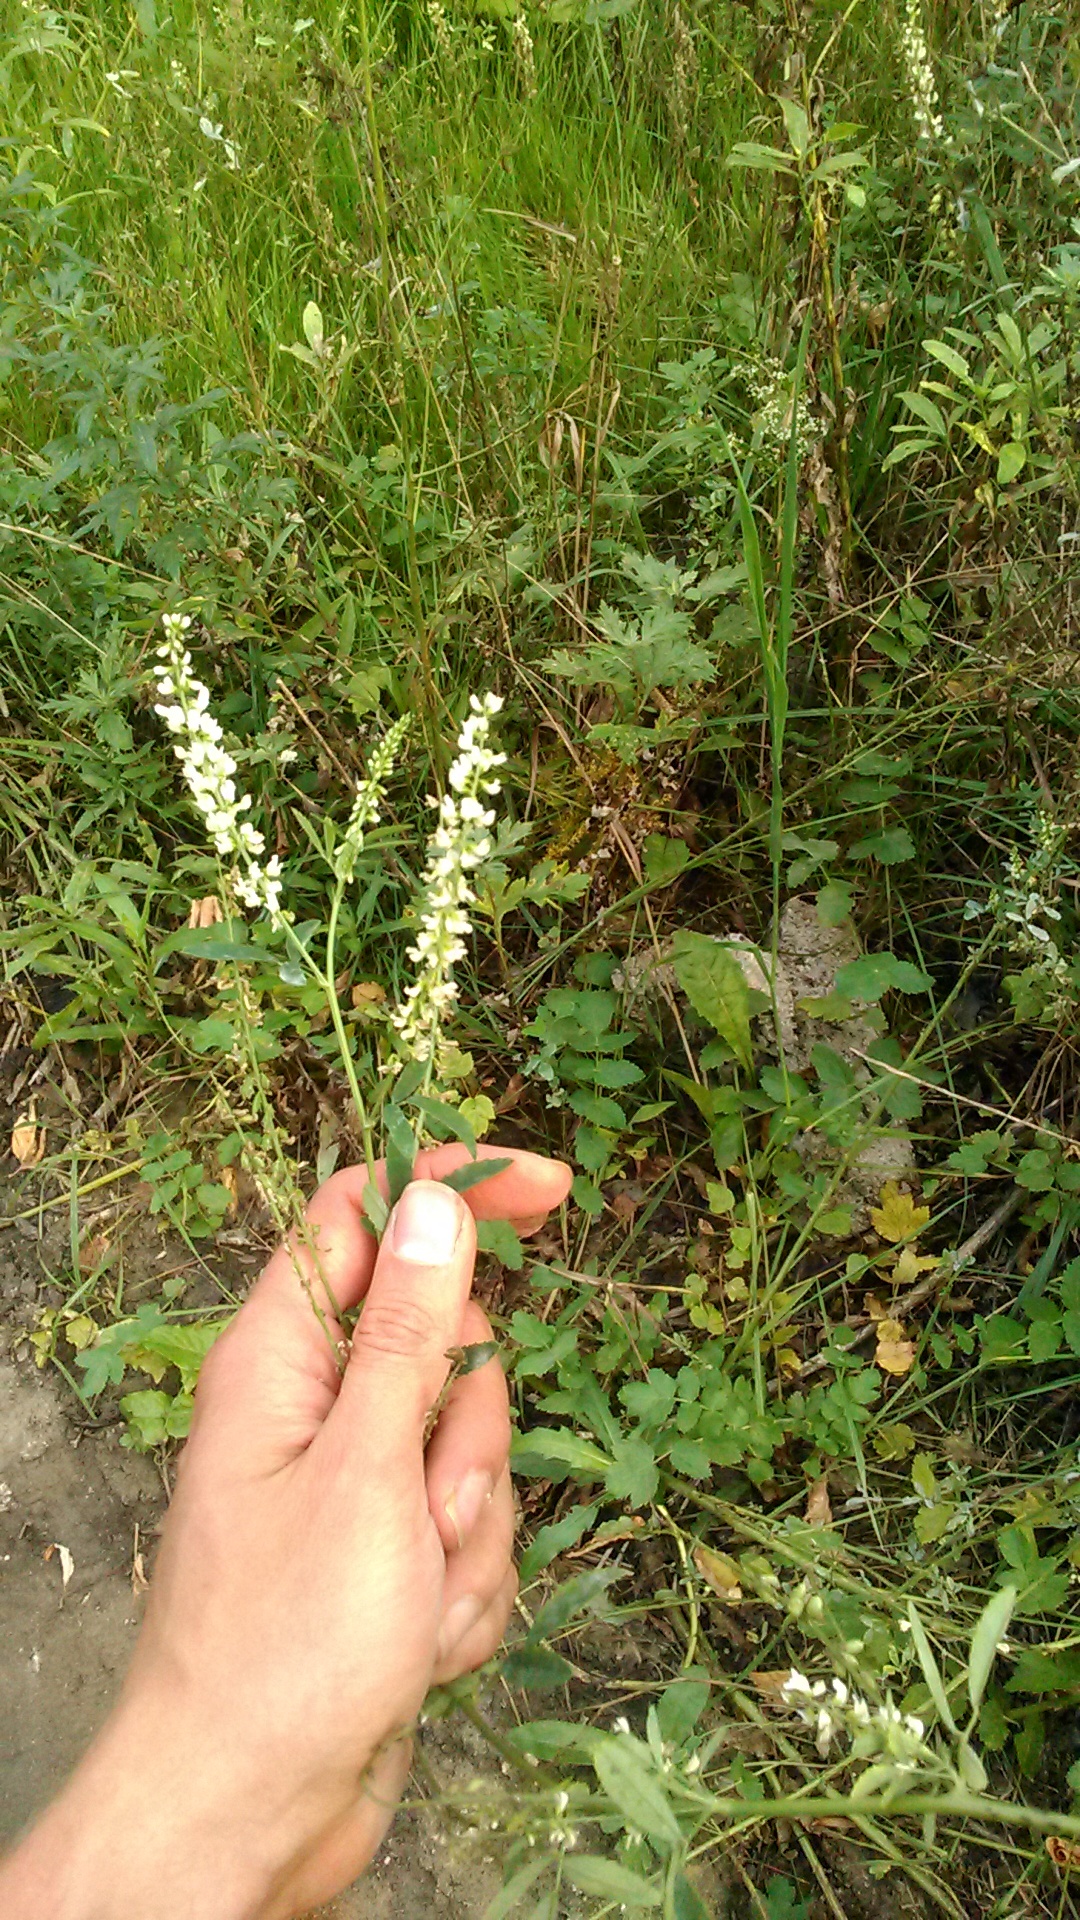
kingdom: Plantae
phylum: Tracheophyta
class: Magnoliopsida
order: Fabales
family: Fabaceae
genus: Melilotus
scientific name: Melilotus albus
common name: White melilot
